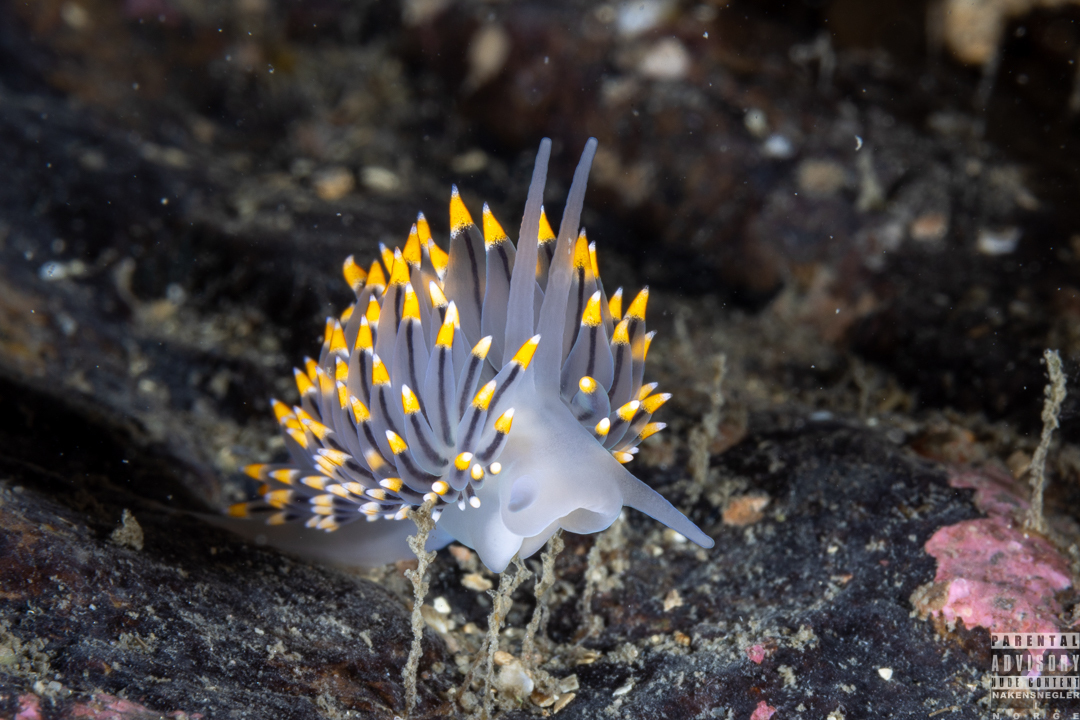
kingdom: Animalia
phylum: Mollusca
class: Gastropoda
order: Nudibranchia
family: Eubranchidae
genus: Eubranchus
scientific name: Eubranchus tricolor
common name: Painted balloon aeolis
